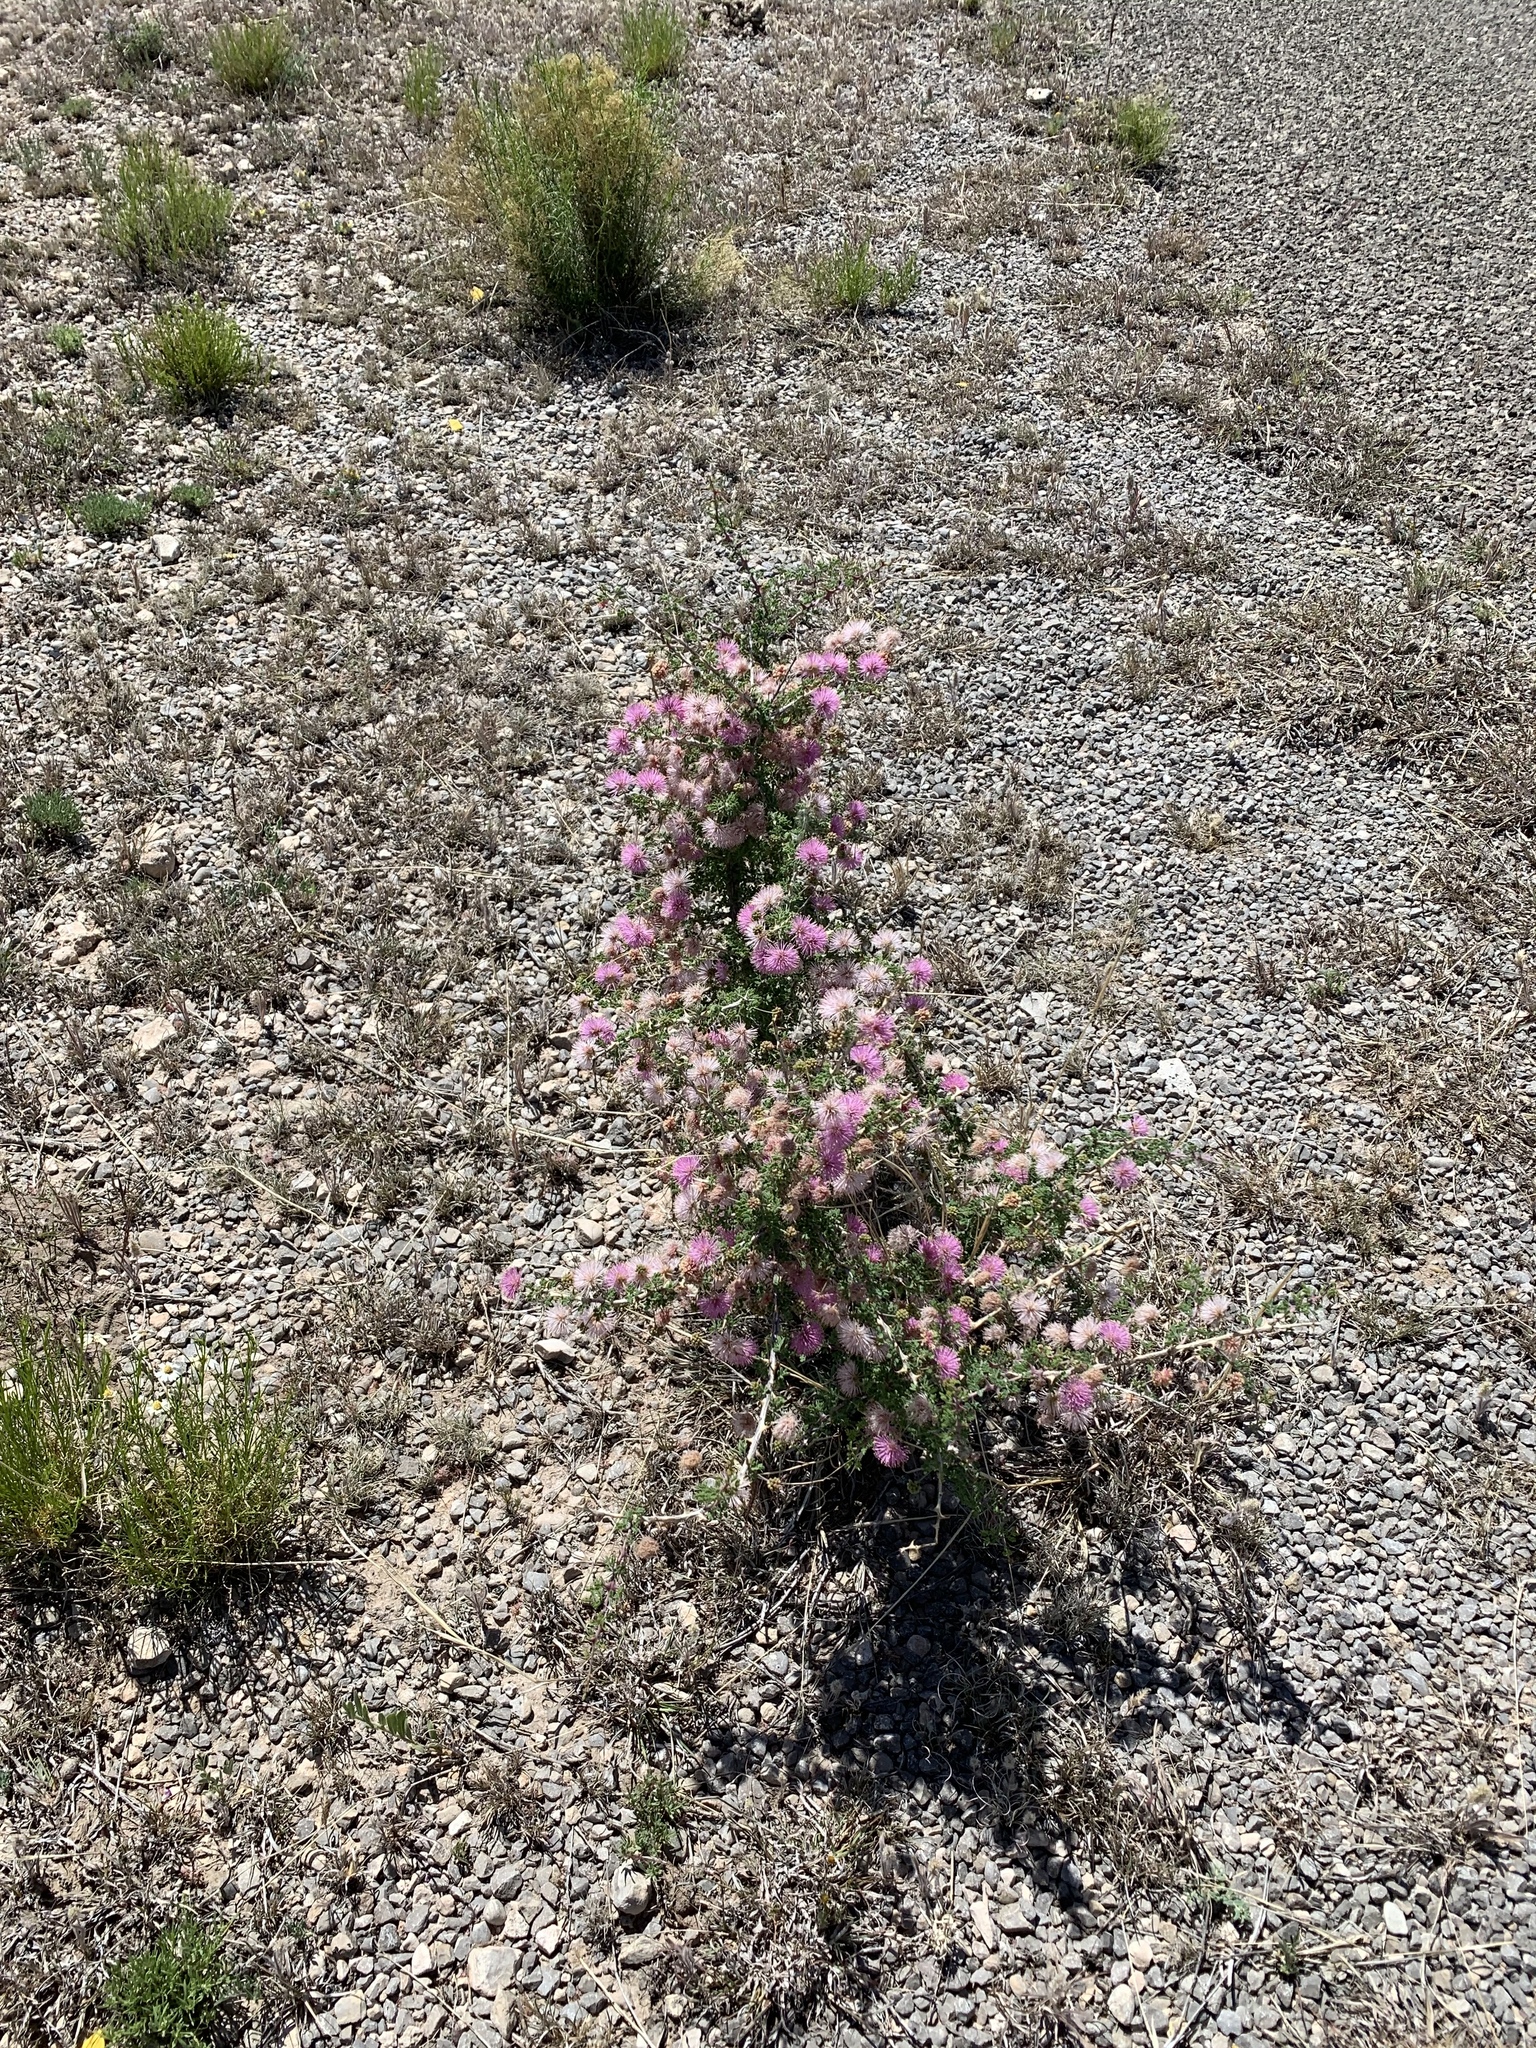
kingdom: Plantae
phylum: Tracheophyta
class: Magnoliopsida
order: Fabales
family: Fabaceae
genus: Mimosa
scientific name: Mimosa borealis
